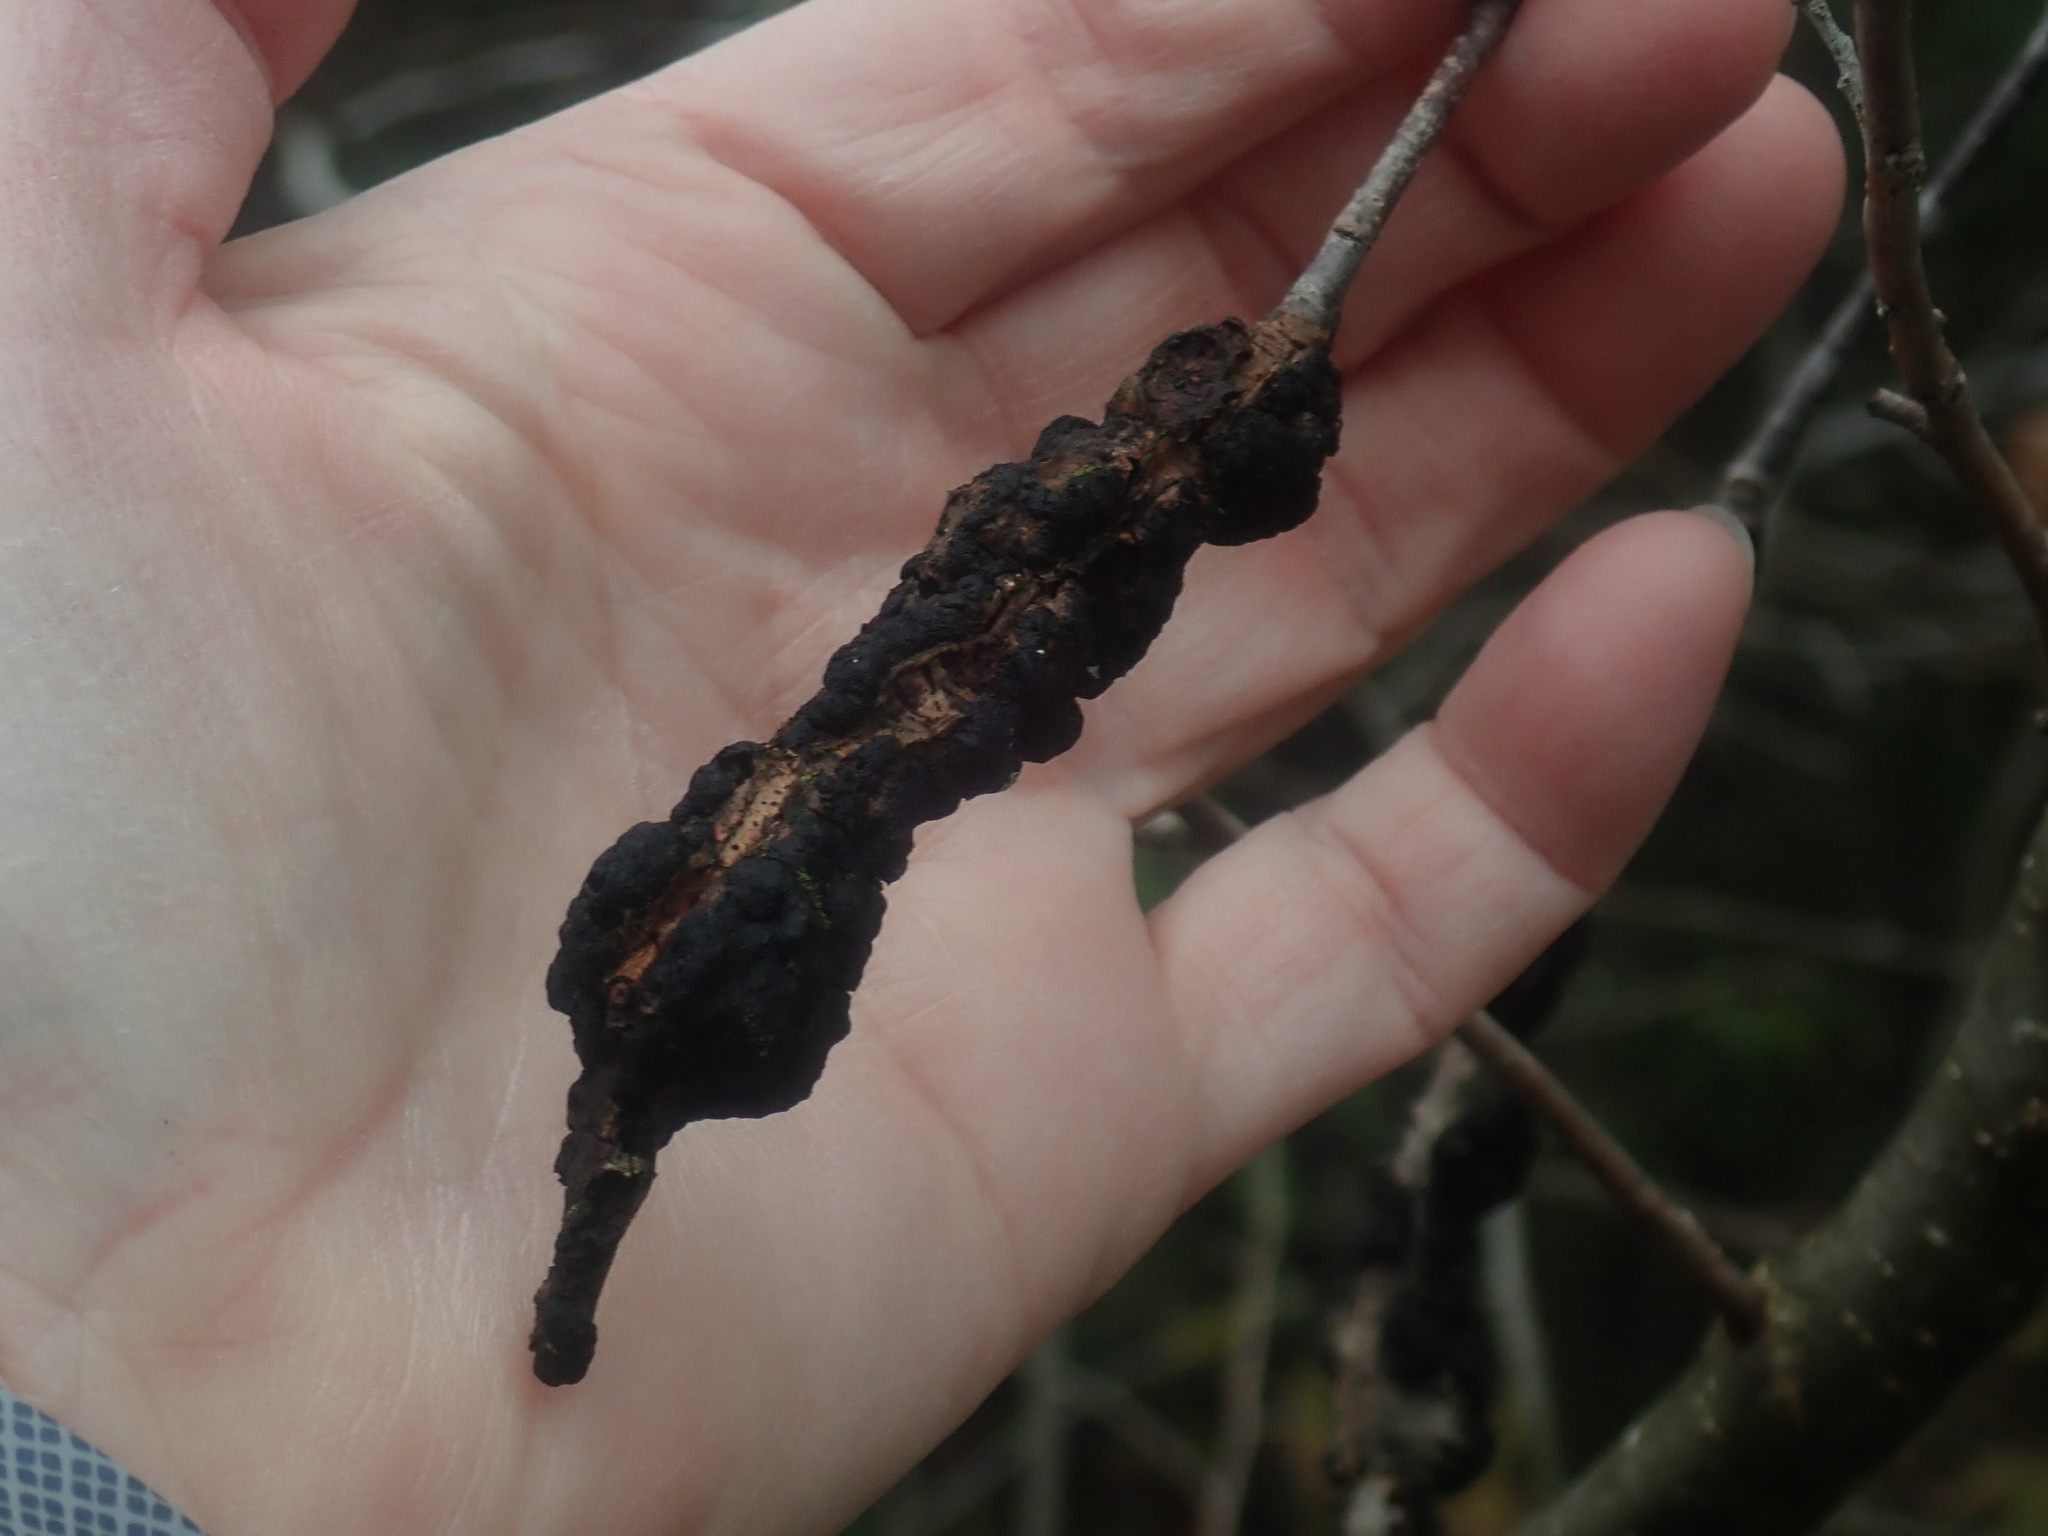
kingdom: Fungi
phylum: Ascomycota
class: Dothideomycetes
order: Venturiales
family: Venturiaceae
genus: Apiosporina
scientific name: Apiosporina morbosa
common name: Black knot
